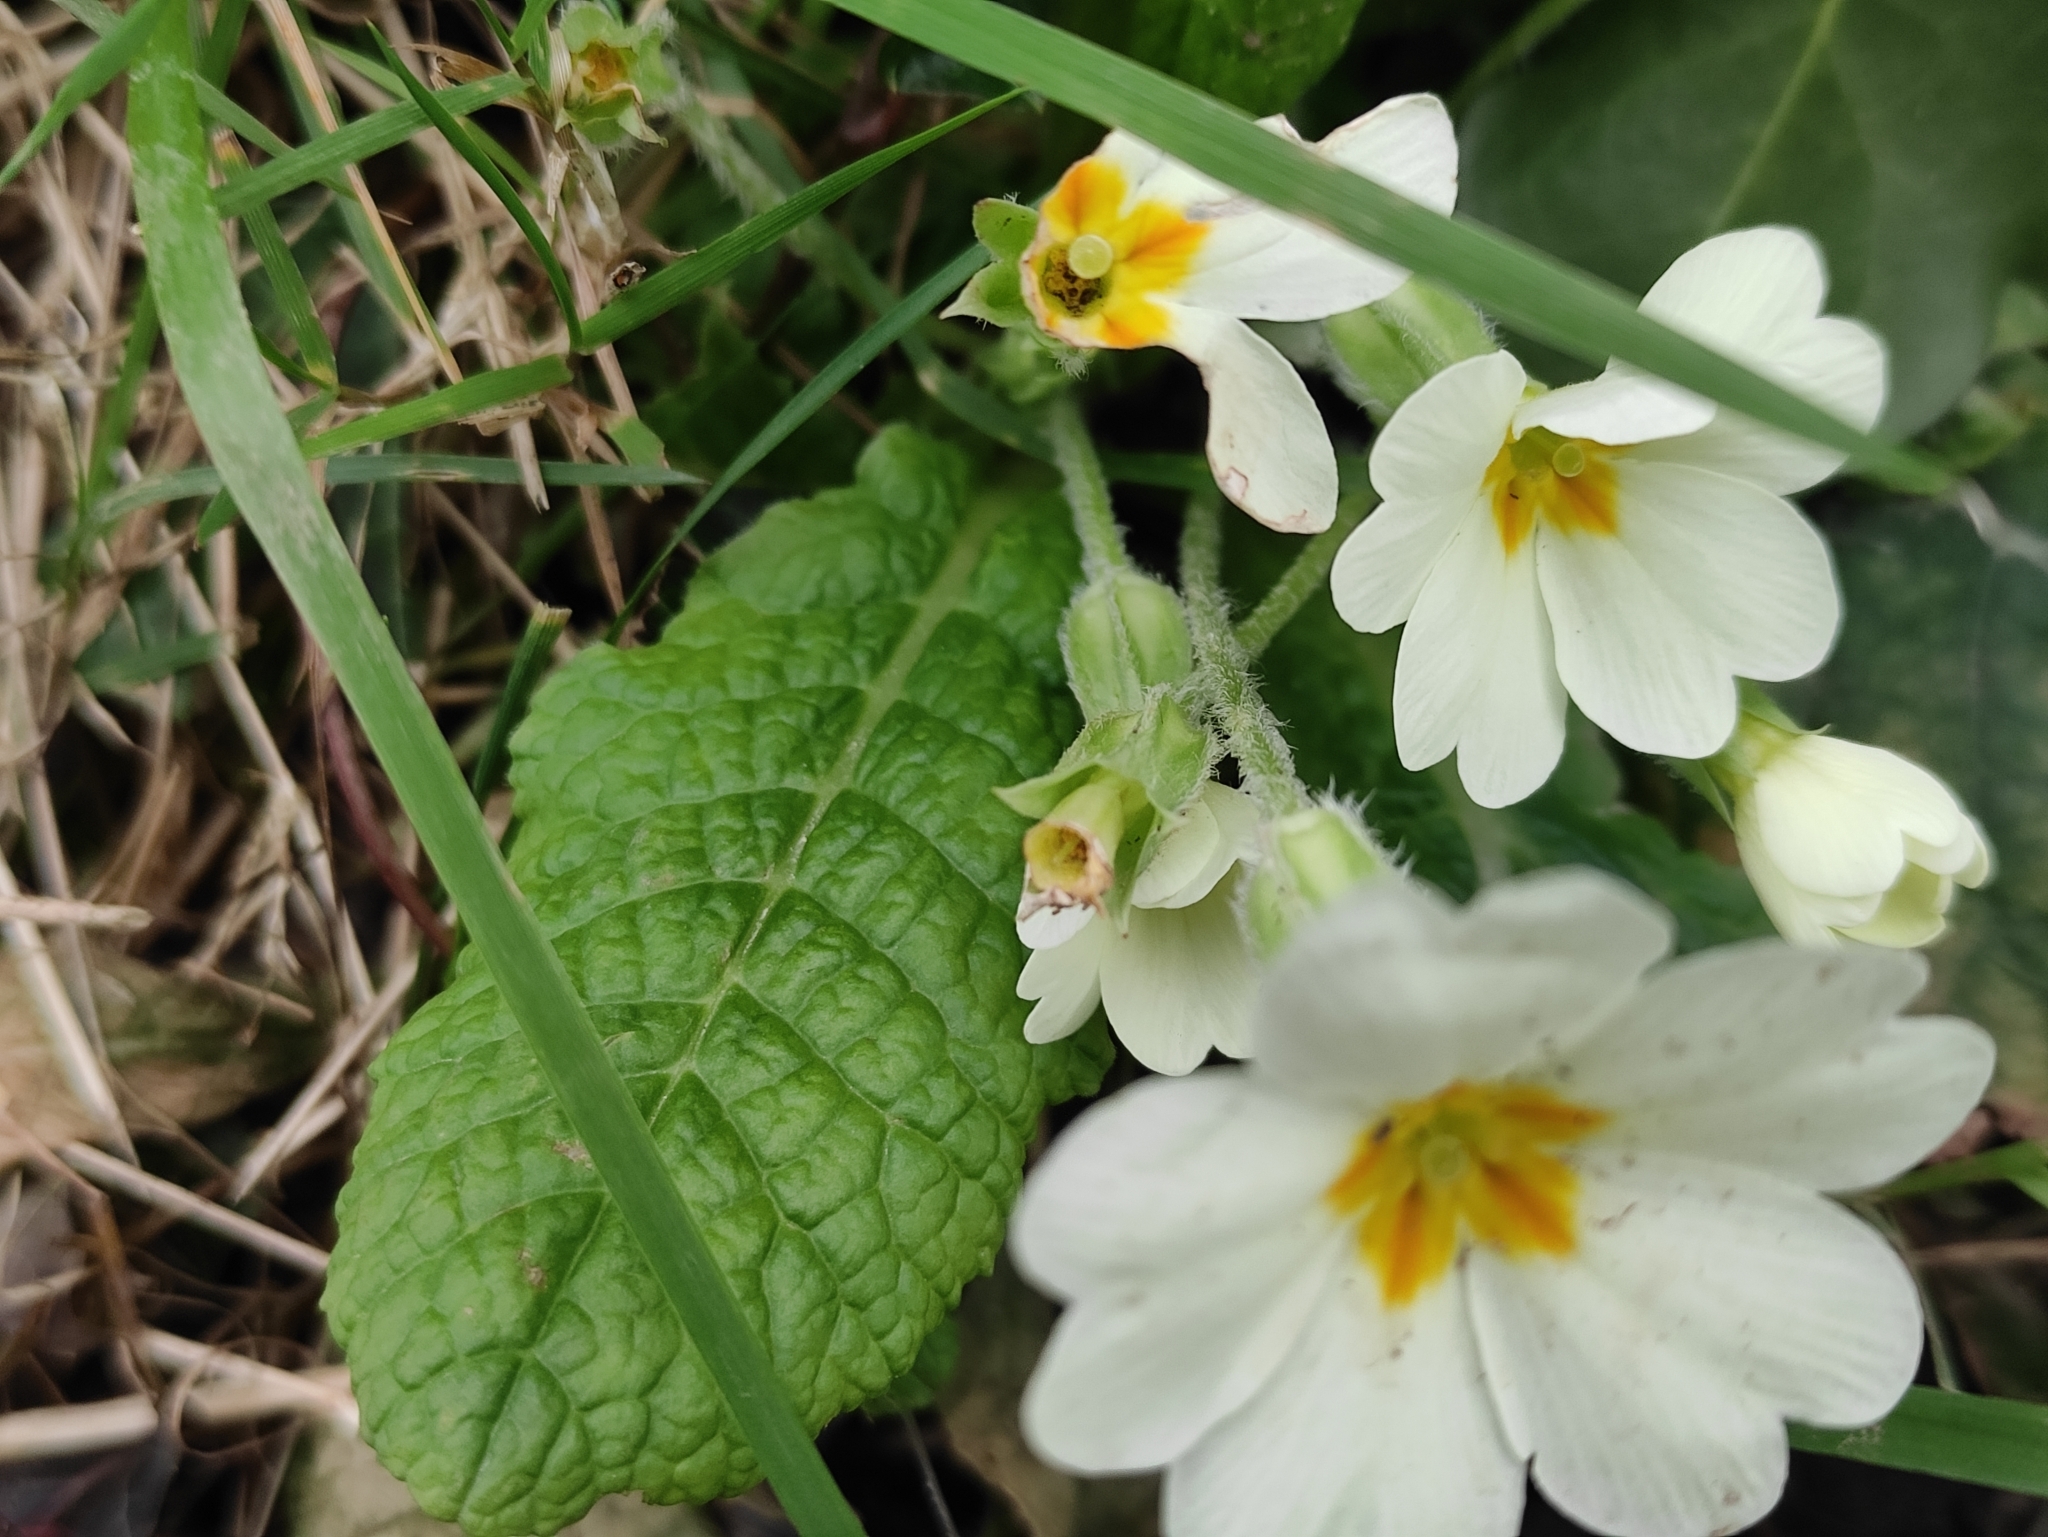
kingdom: Plantae
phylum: Tracheophyta
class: Magnoliopsida
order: Ericales
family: Primulaceae
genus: Primula
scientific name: Primula vulgaris
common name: Primrose
